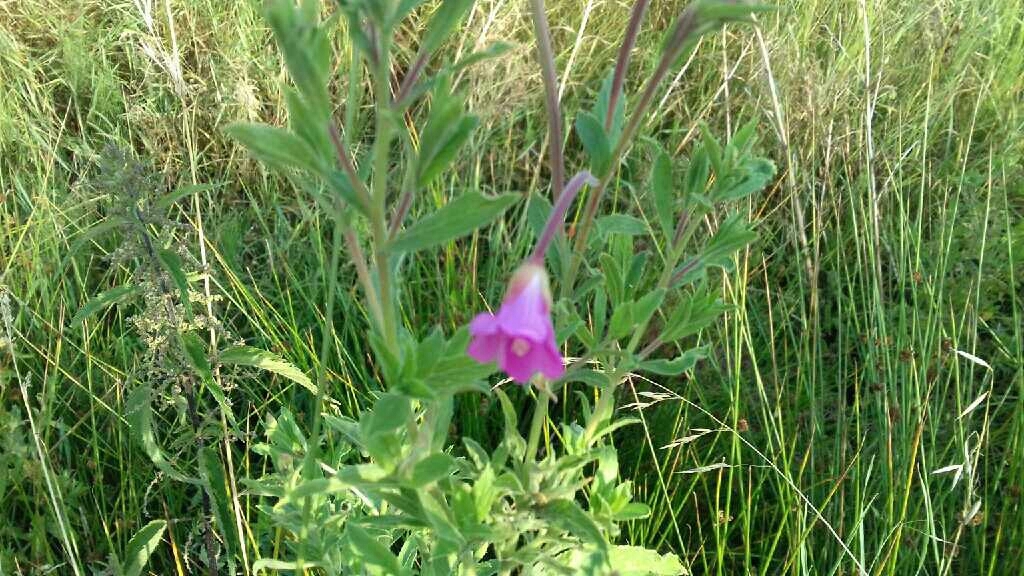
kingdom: Plantae
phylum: Tracheophyta
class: Magnoliopsida
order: Myrtales
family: Onagraceae
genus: Epilobium
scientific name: Epilobium hirsutum
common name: Great willowherb
